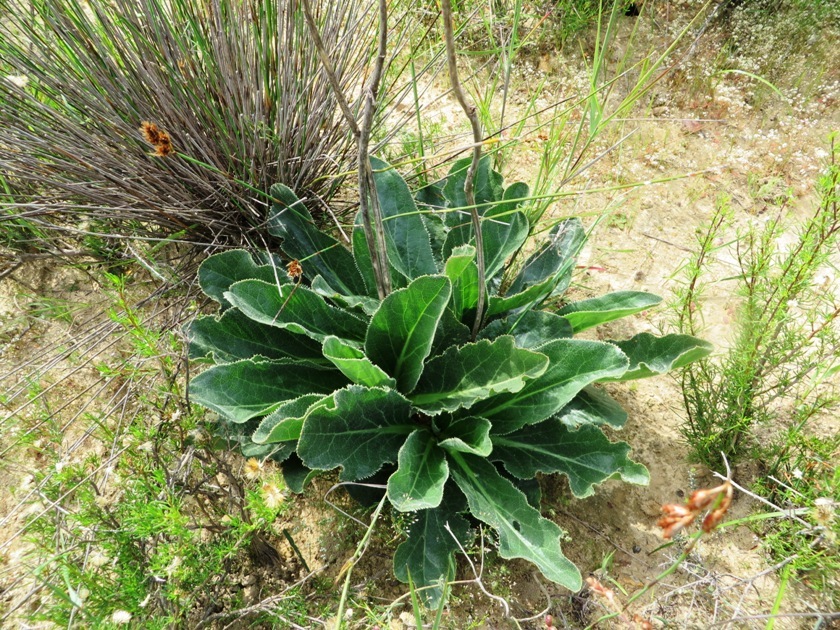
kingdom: Plantae
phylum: Tracheophyta
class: Magnoliopsida
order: Apiales
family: Apiaceae
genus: Lichtensteinia
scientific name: Lichtensteinia trifida
